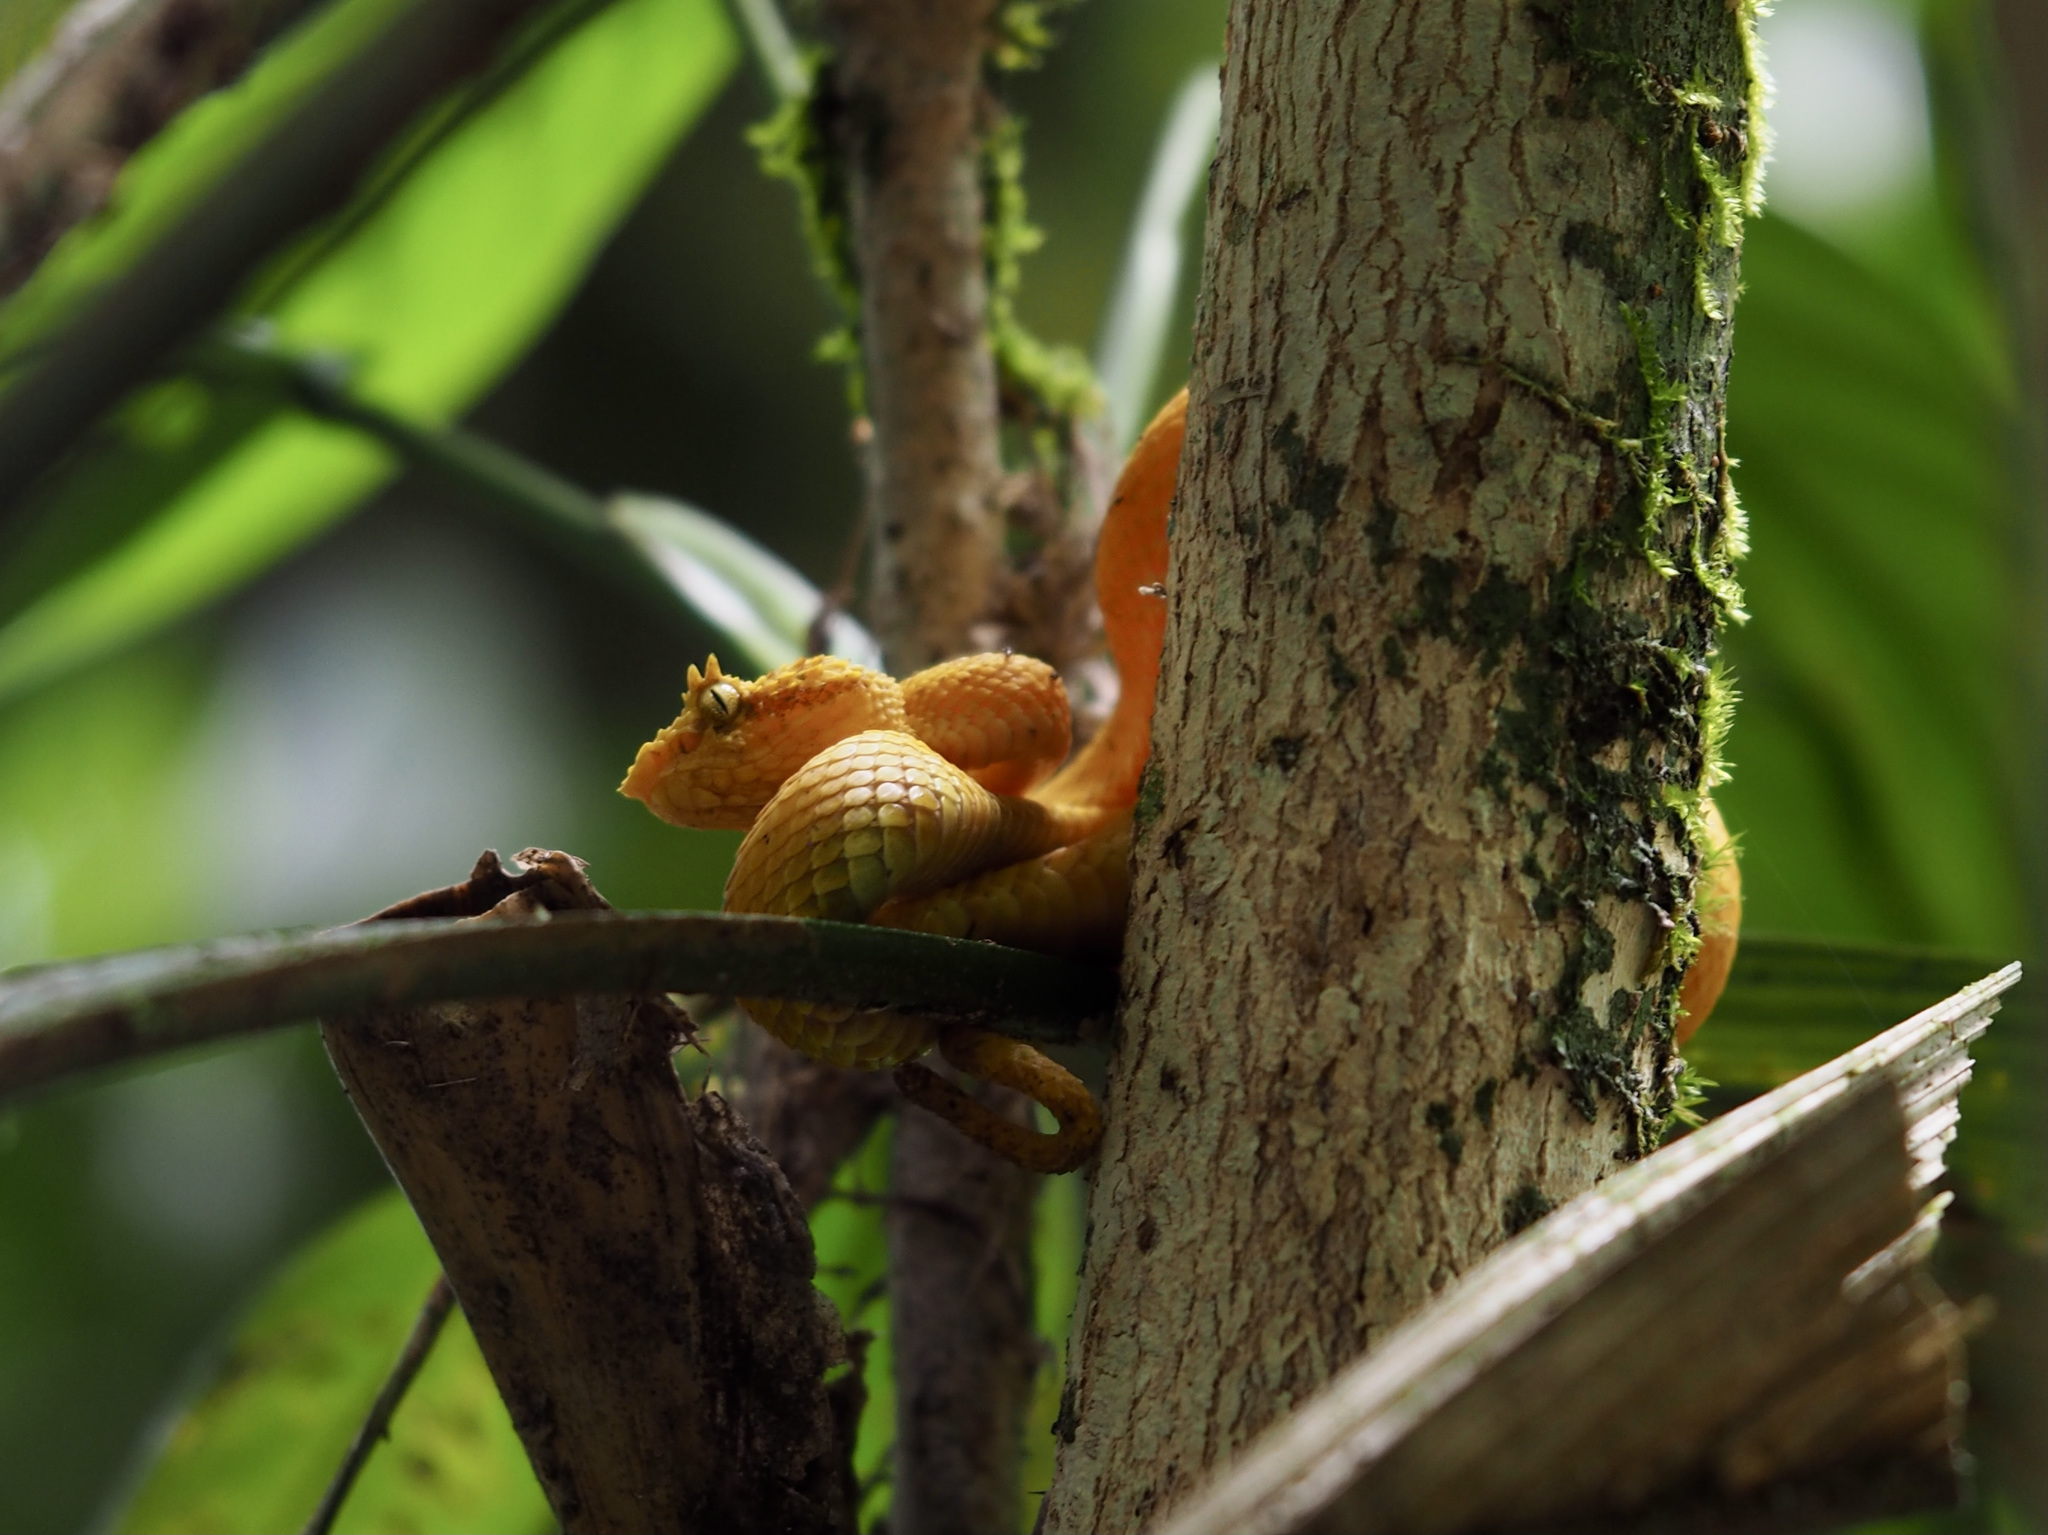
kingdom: Animalia
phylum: Chordata
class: Squamata
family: Viperidae
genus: Bothriechis
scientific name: Bothriechis schlegelii
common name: Eyelash viper
